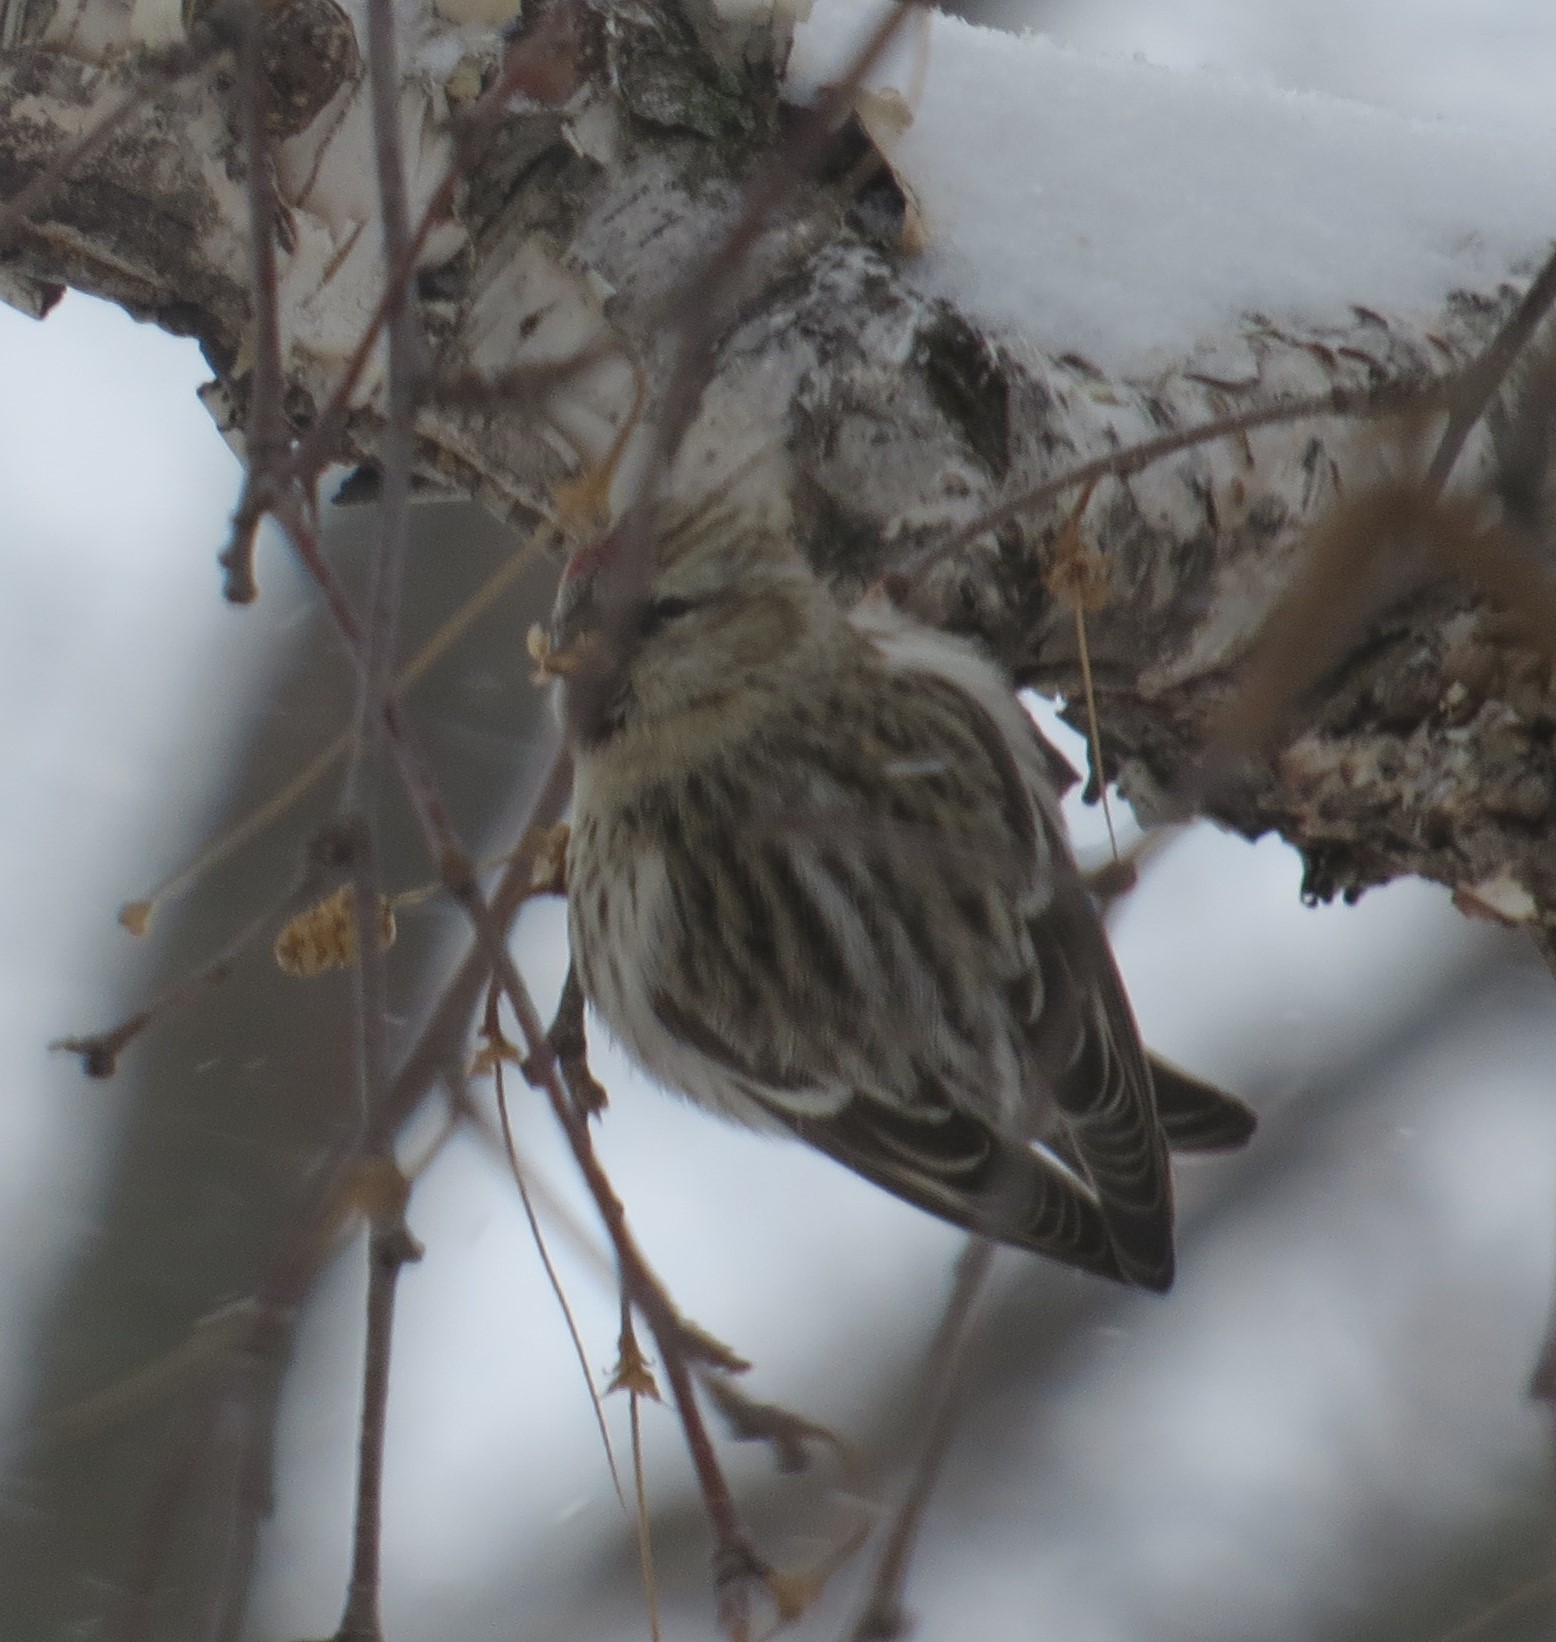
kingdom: Animalia
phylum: Chordata
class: Aves
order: Passeriformes
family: Fringillidae
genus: Acanthis
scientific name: Acanthis flammea
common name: Common redpoll
